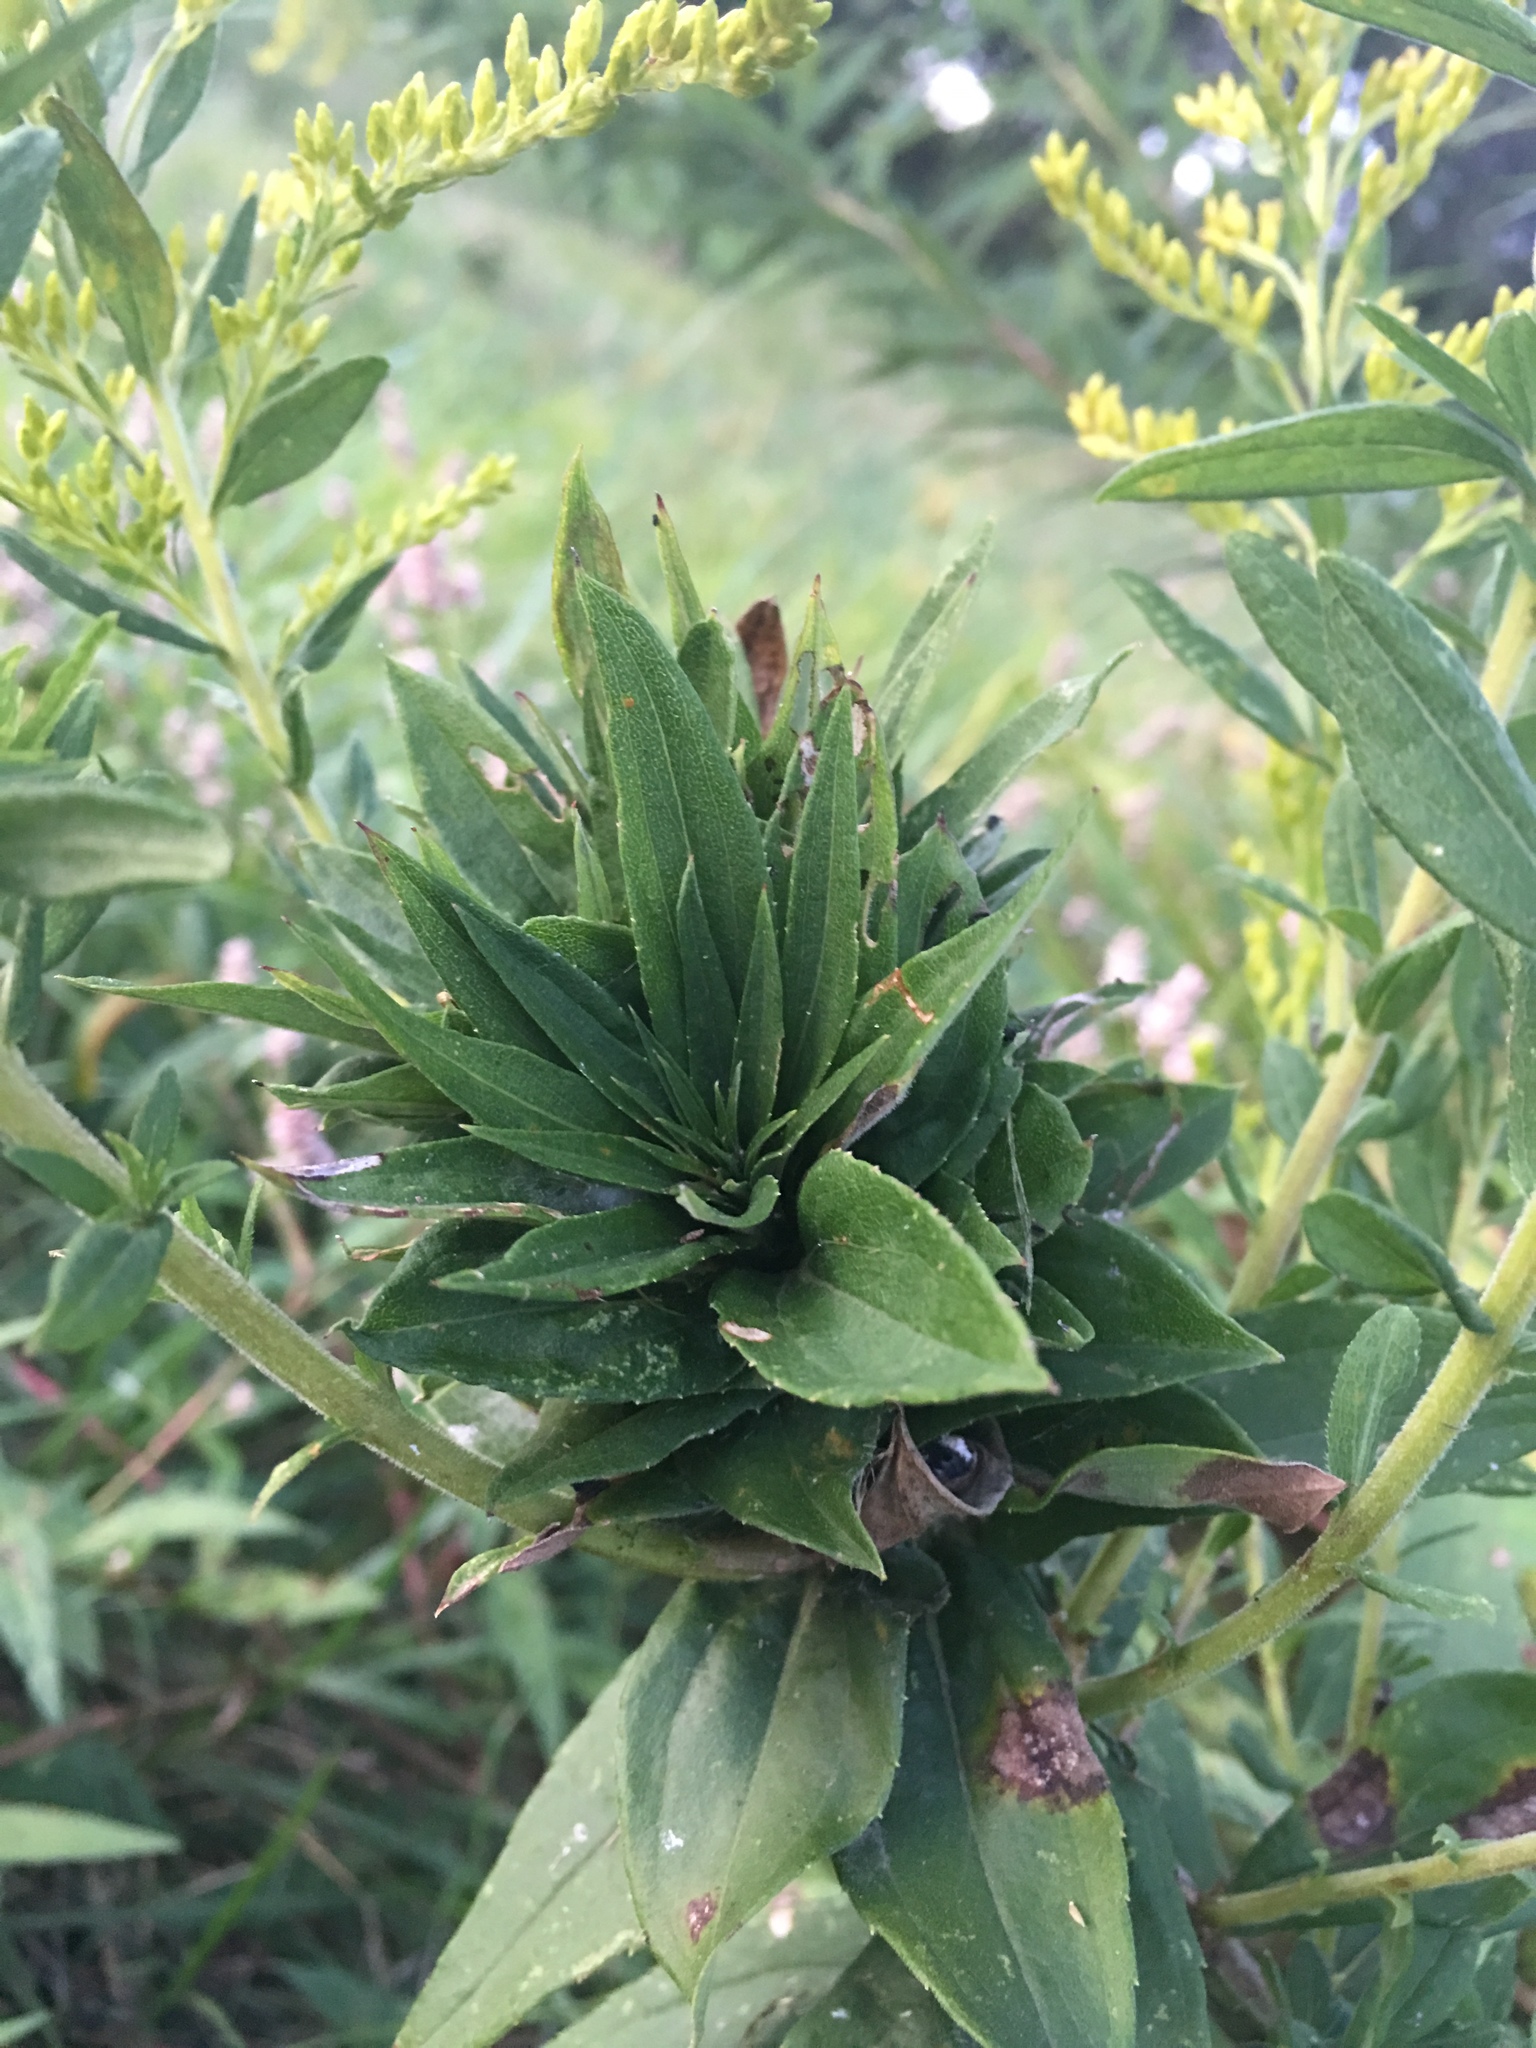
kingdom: Animalia
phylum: Arthropoda
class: Insecta
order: Diptera
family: Cecidomyiidae
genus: Rhopalomyia
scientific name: Rhopalomyia solidaginis
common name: Goldenrod bunch gall midge
